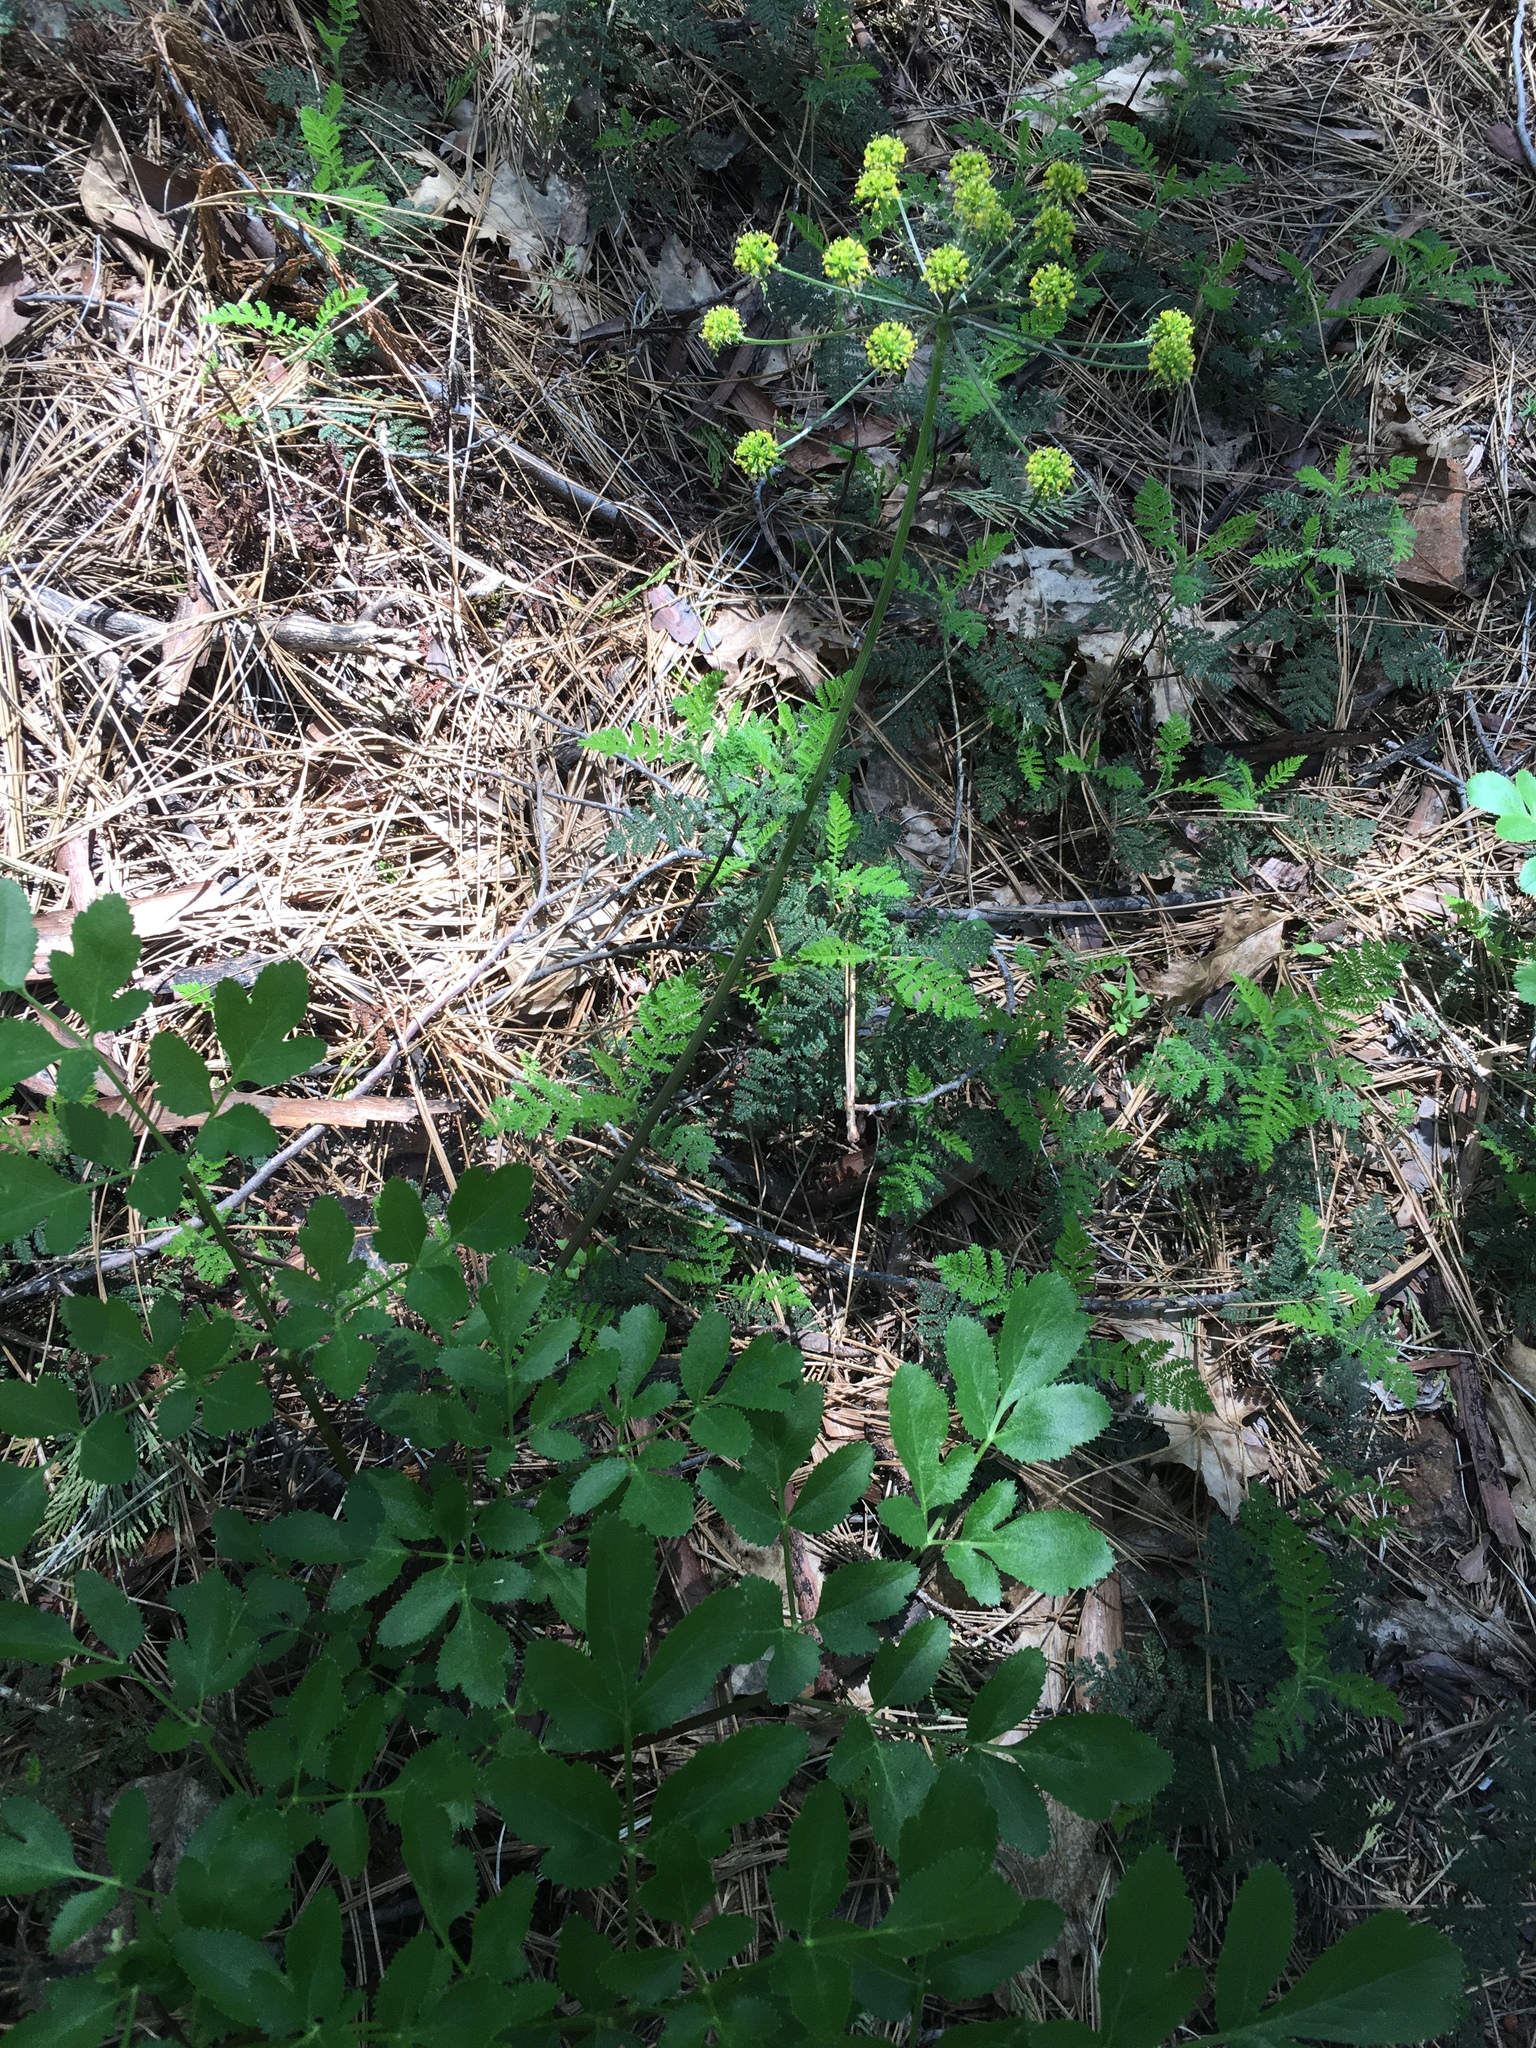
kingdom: Plantae
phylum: Tracheophyta
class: Magnoliopsida
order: Apiales
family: Apiaceae
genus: Tauschia
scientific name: Tauschia hartwegii
